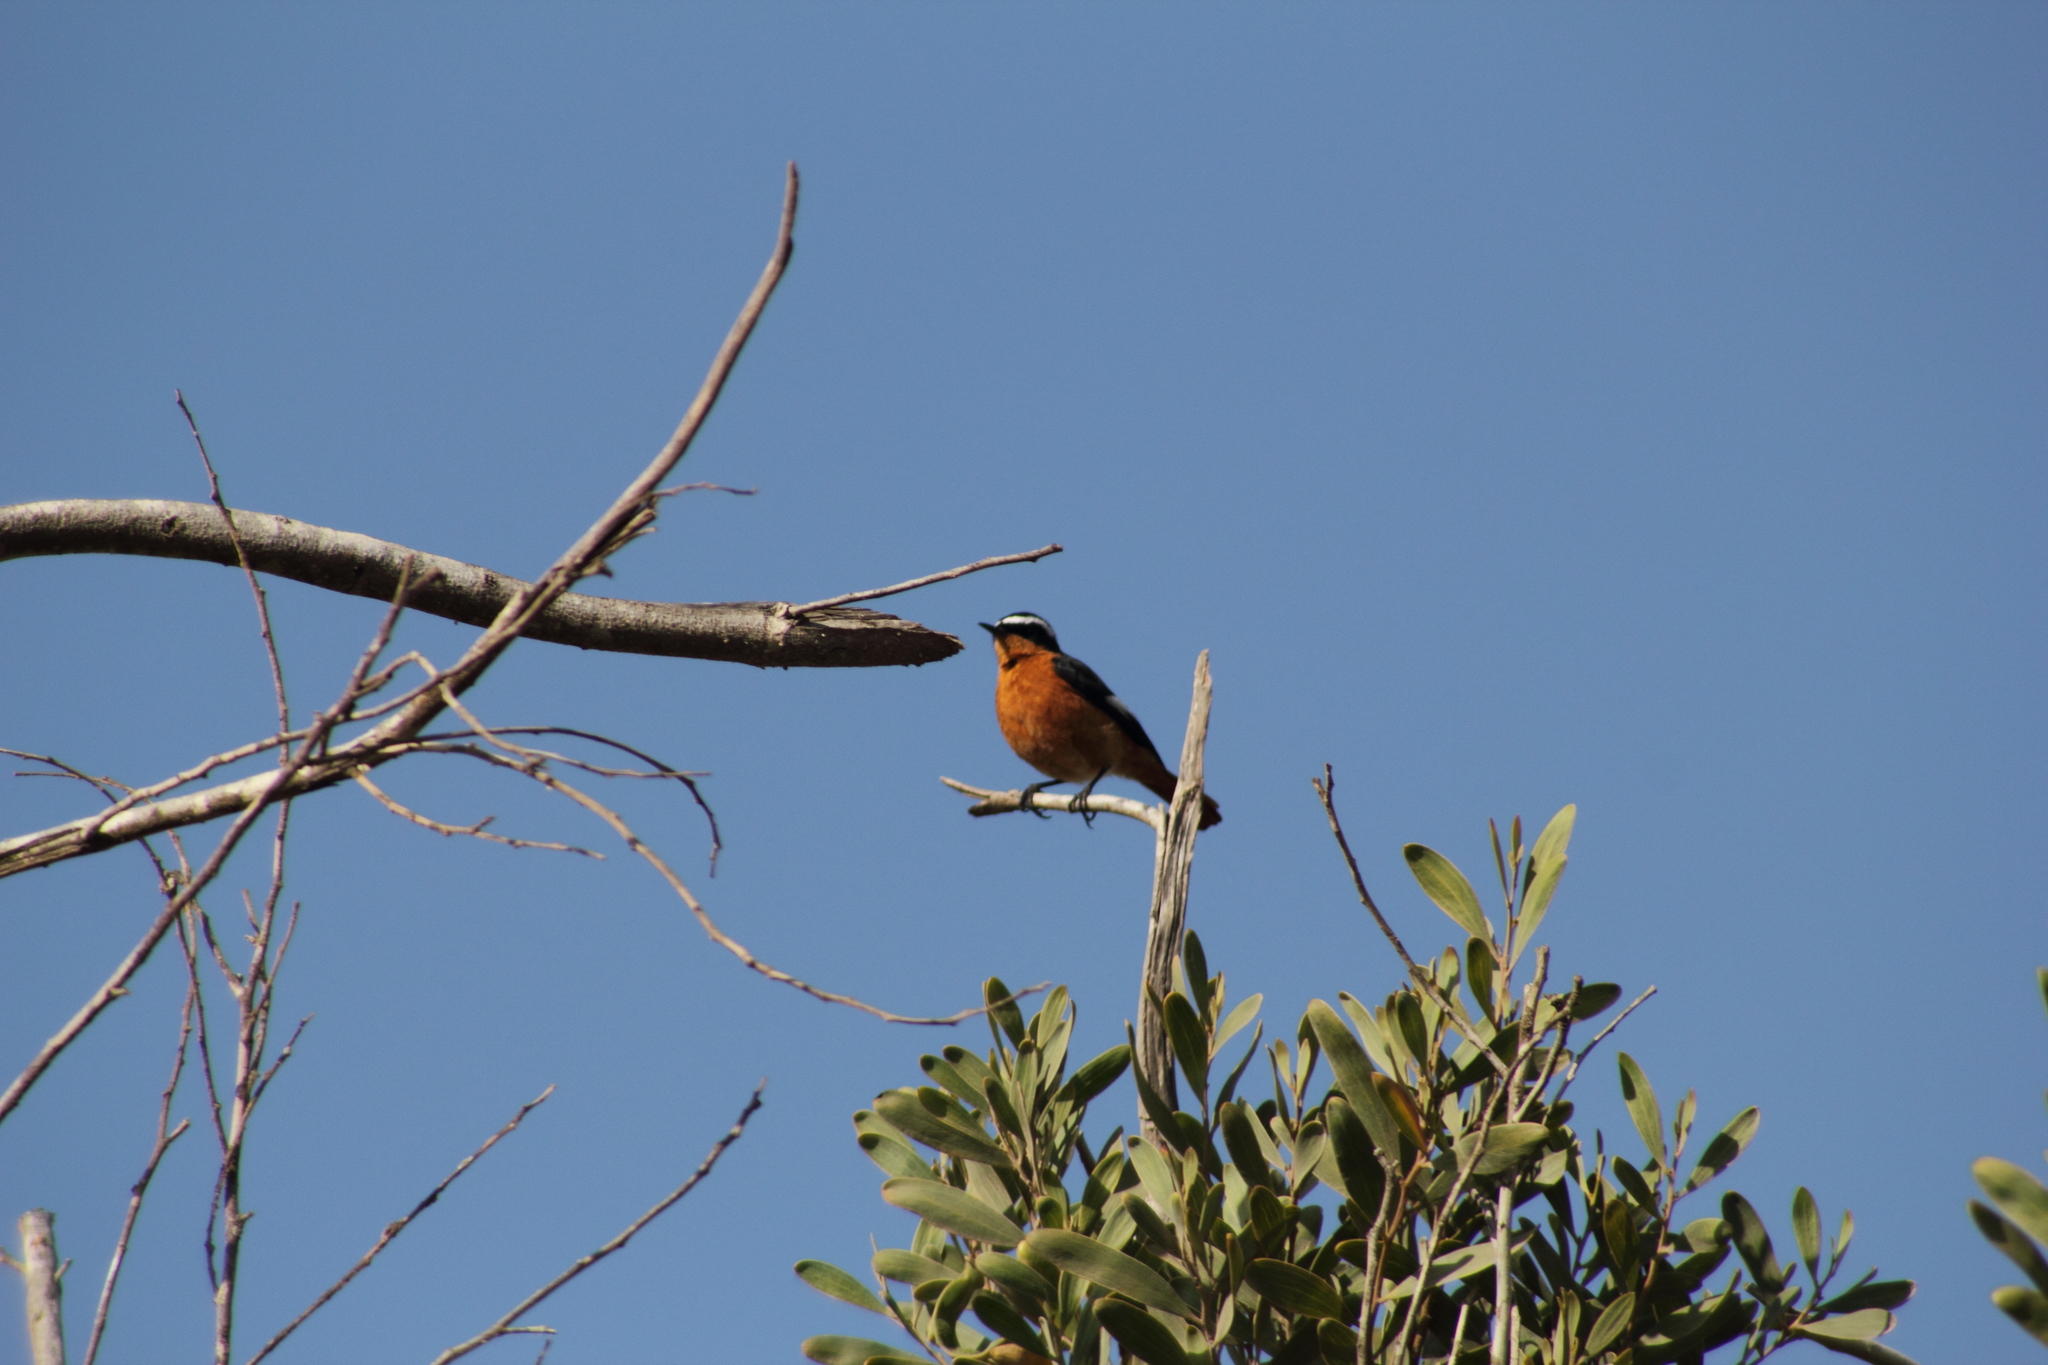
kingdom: Animalia
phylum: Chordata
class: Aves
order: Passeriformes
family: Muscicapidae
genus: Phoenicurus
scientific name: Phoenicurus moussieri
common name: Moussier's redstart
